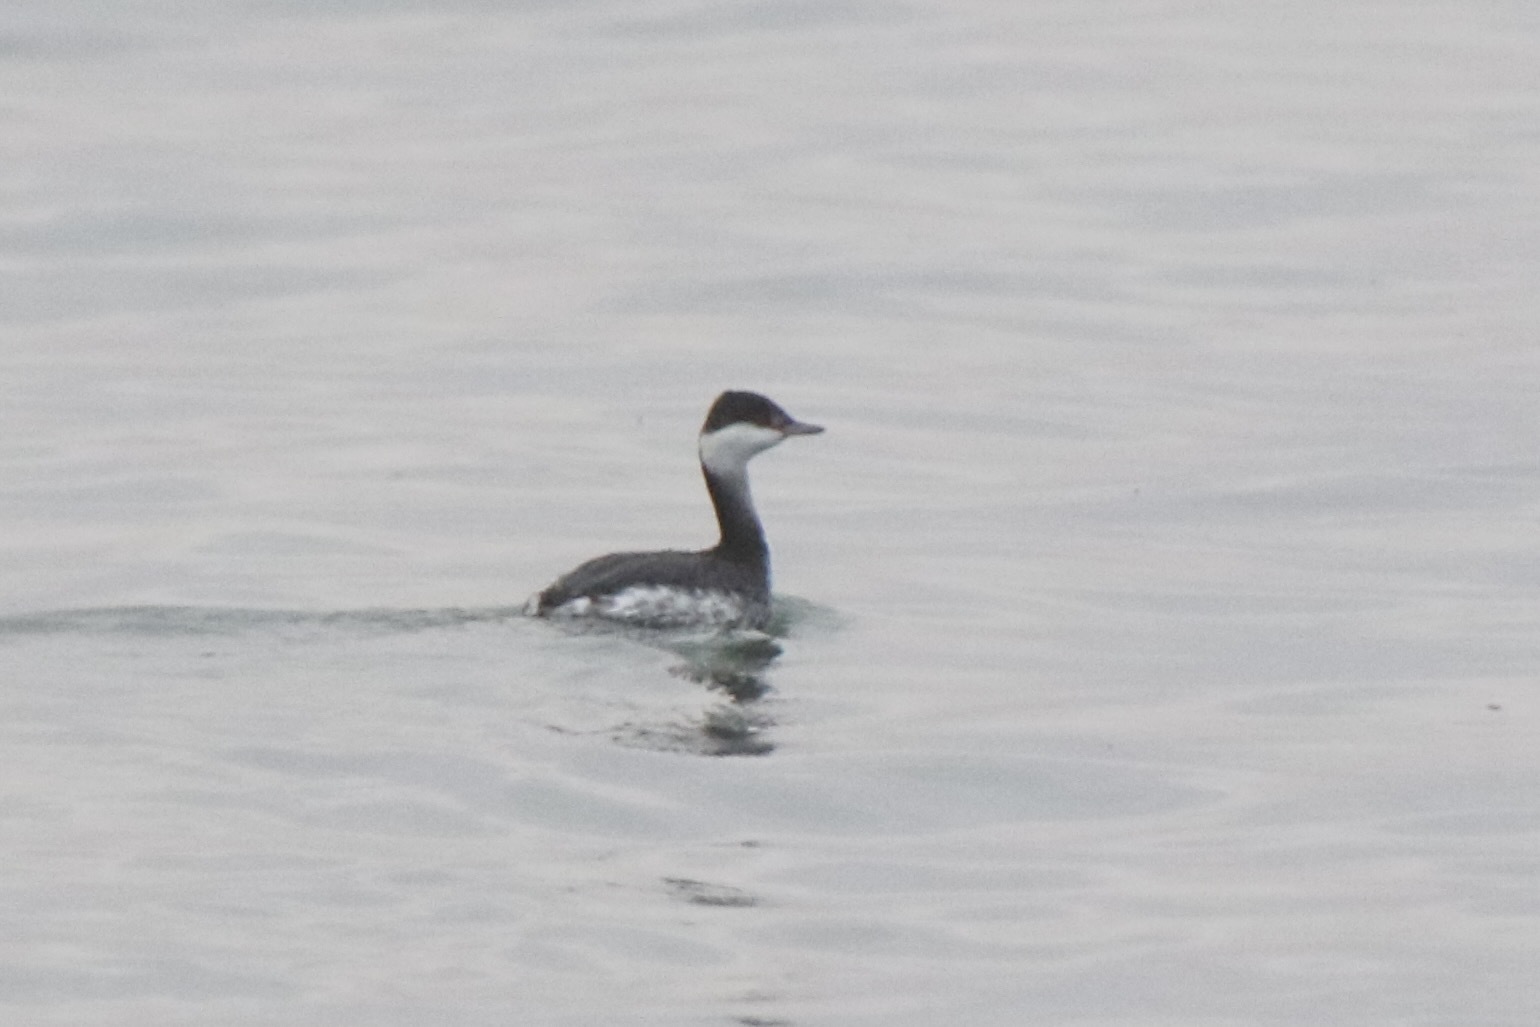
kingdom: Animalia
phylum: Chordata
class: Aves
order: Podicipediformes
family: Podicipedidae
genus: Podiceps
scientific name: Podiceps auritus
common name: Horned grebe
